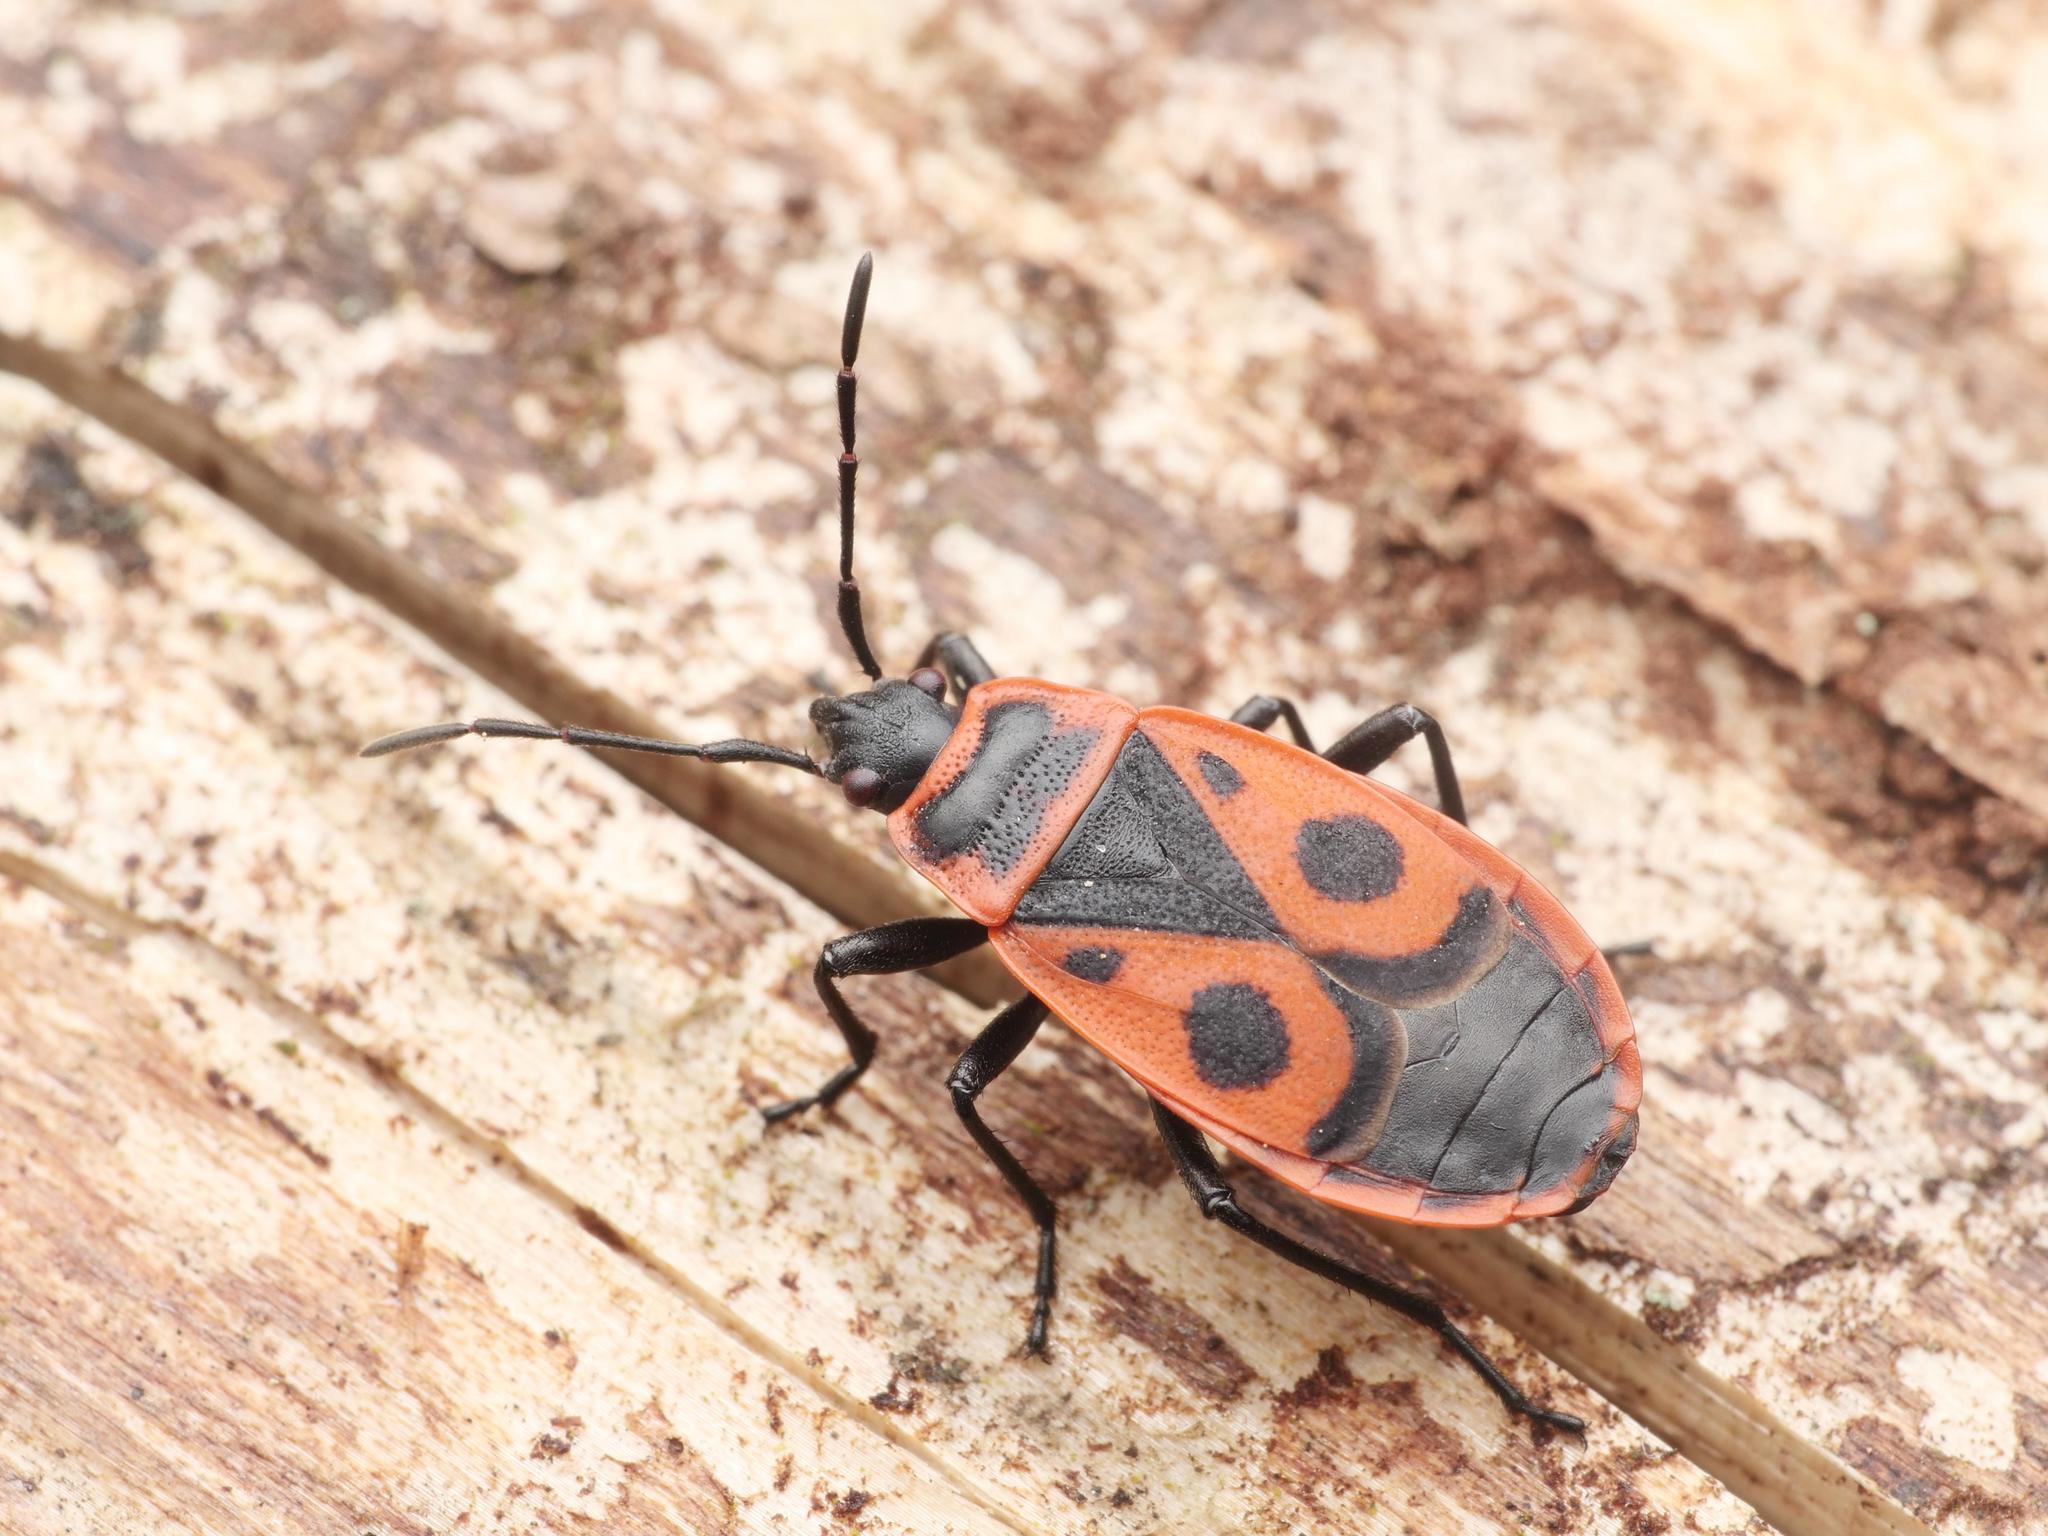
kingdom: Animalia
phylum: Arthropoda
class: Insecta
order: Hemiptera
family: Pyrrhocoridae
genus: Pyrrhocoris
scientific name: Pyrrhocoris apterus
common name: Firebug
